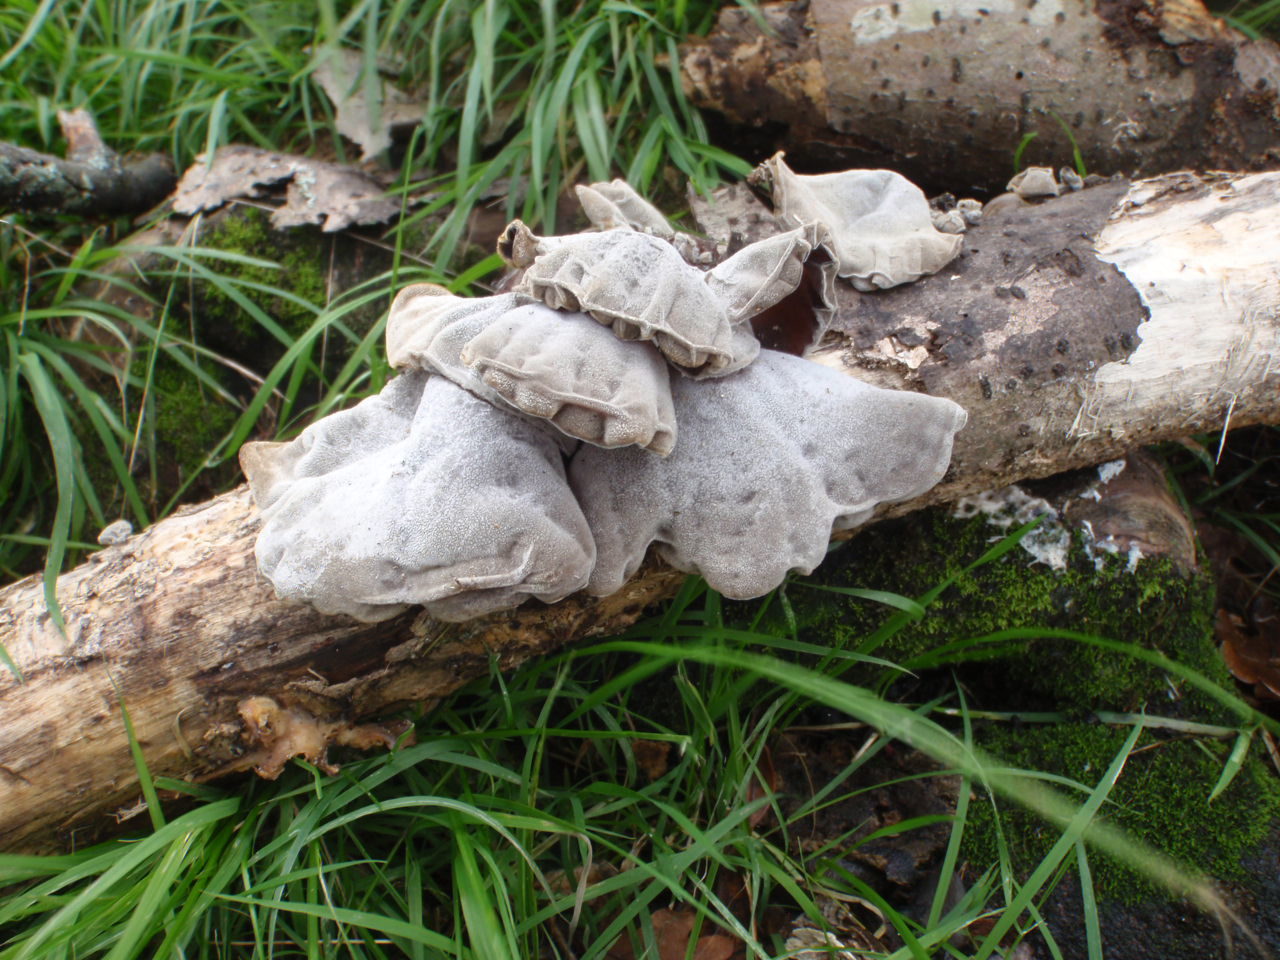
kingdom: Fungi
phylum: Basidiomycota
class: Agaricomycetes
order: Auriculariales
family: Auriculariaceae
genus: Auricularia
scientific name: Auricularia cornea
